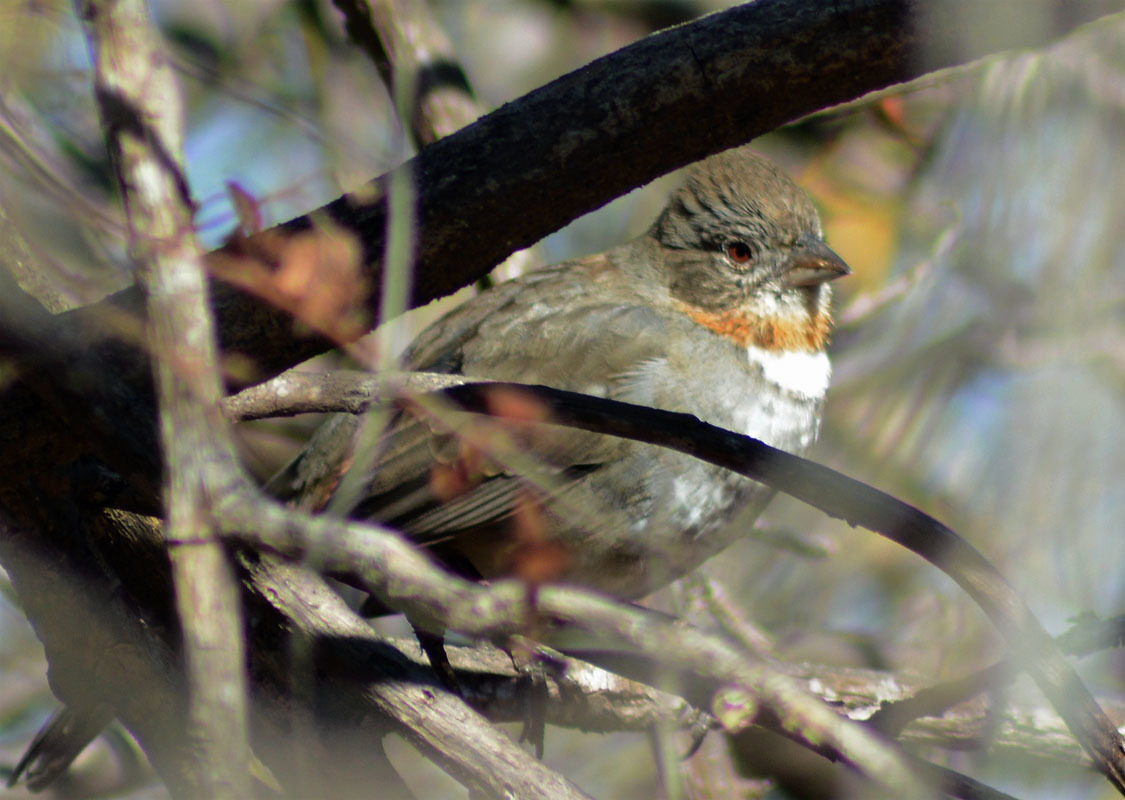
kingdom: Animalia
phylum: Chordata
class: Aves
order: Passeriformes
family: Passerellidae
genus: Melozone
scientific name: Melozone albicollis
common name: White-throated towhee
